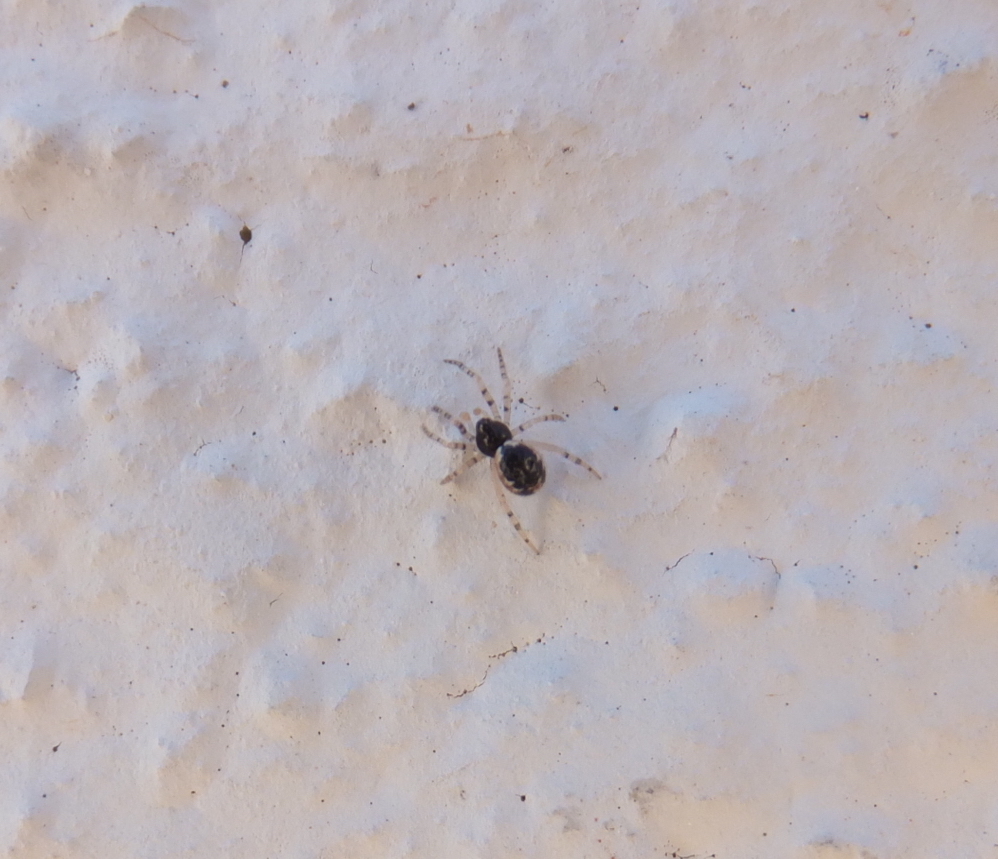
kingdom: Animalia
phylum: Arthropoda
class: Arachnida
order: Araneae
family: Theridiidae
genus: Sardinidion
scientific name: Sardinidion blackwalli
